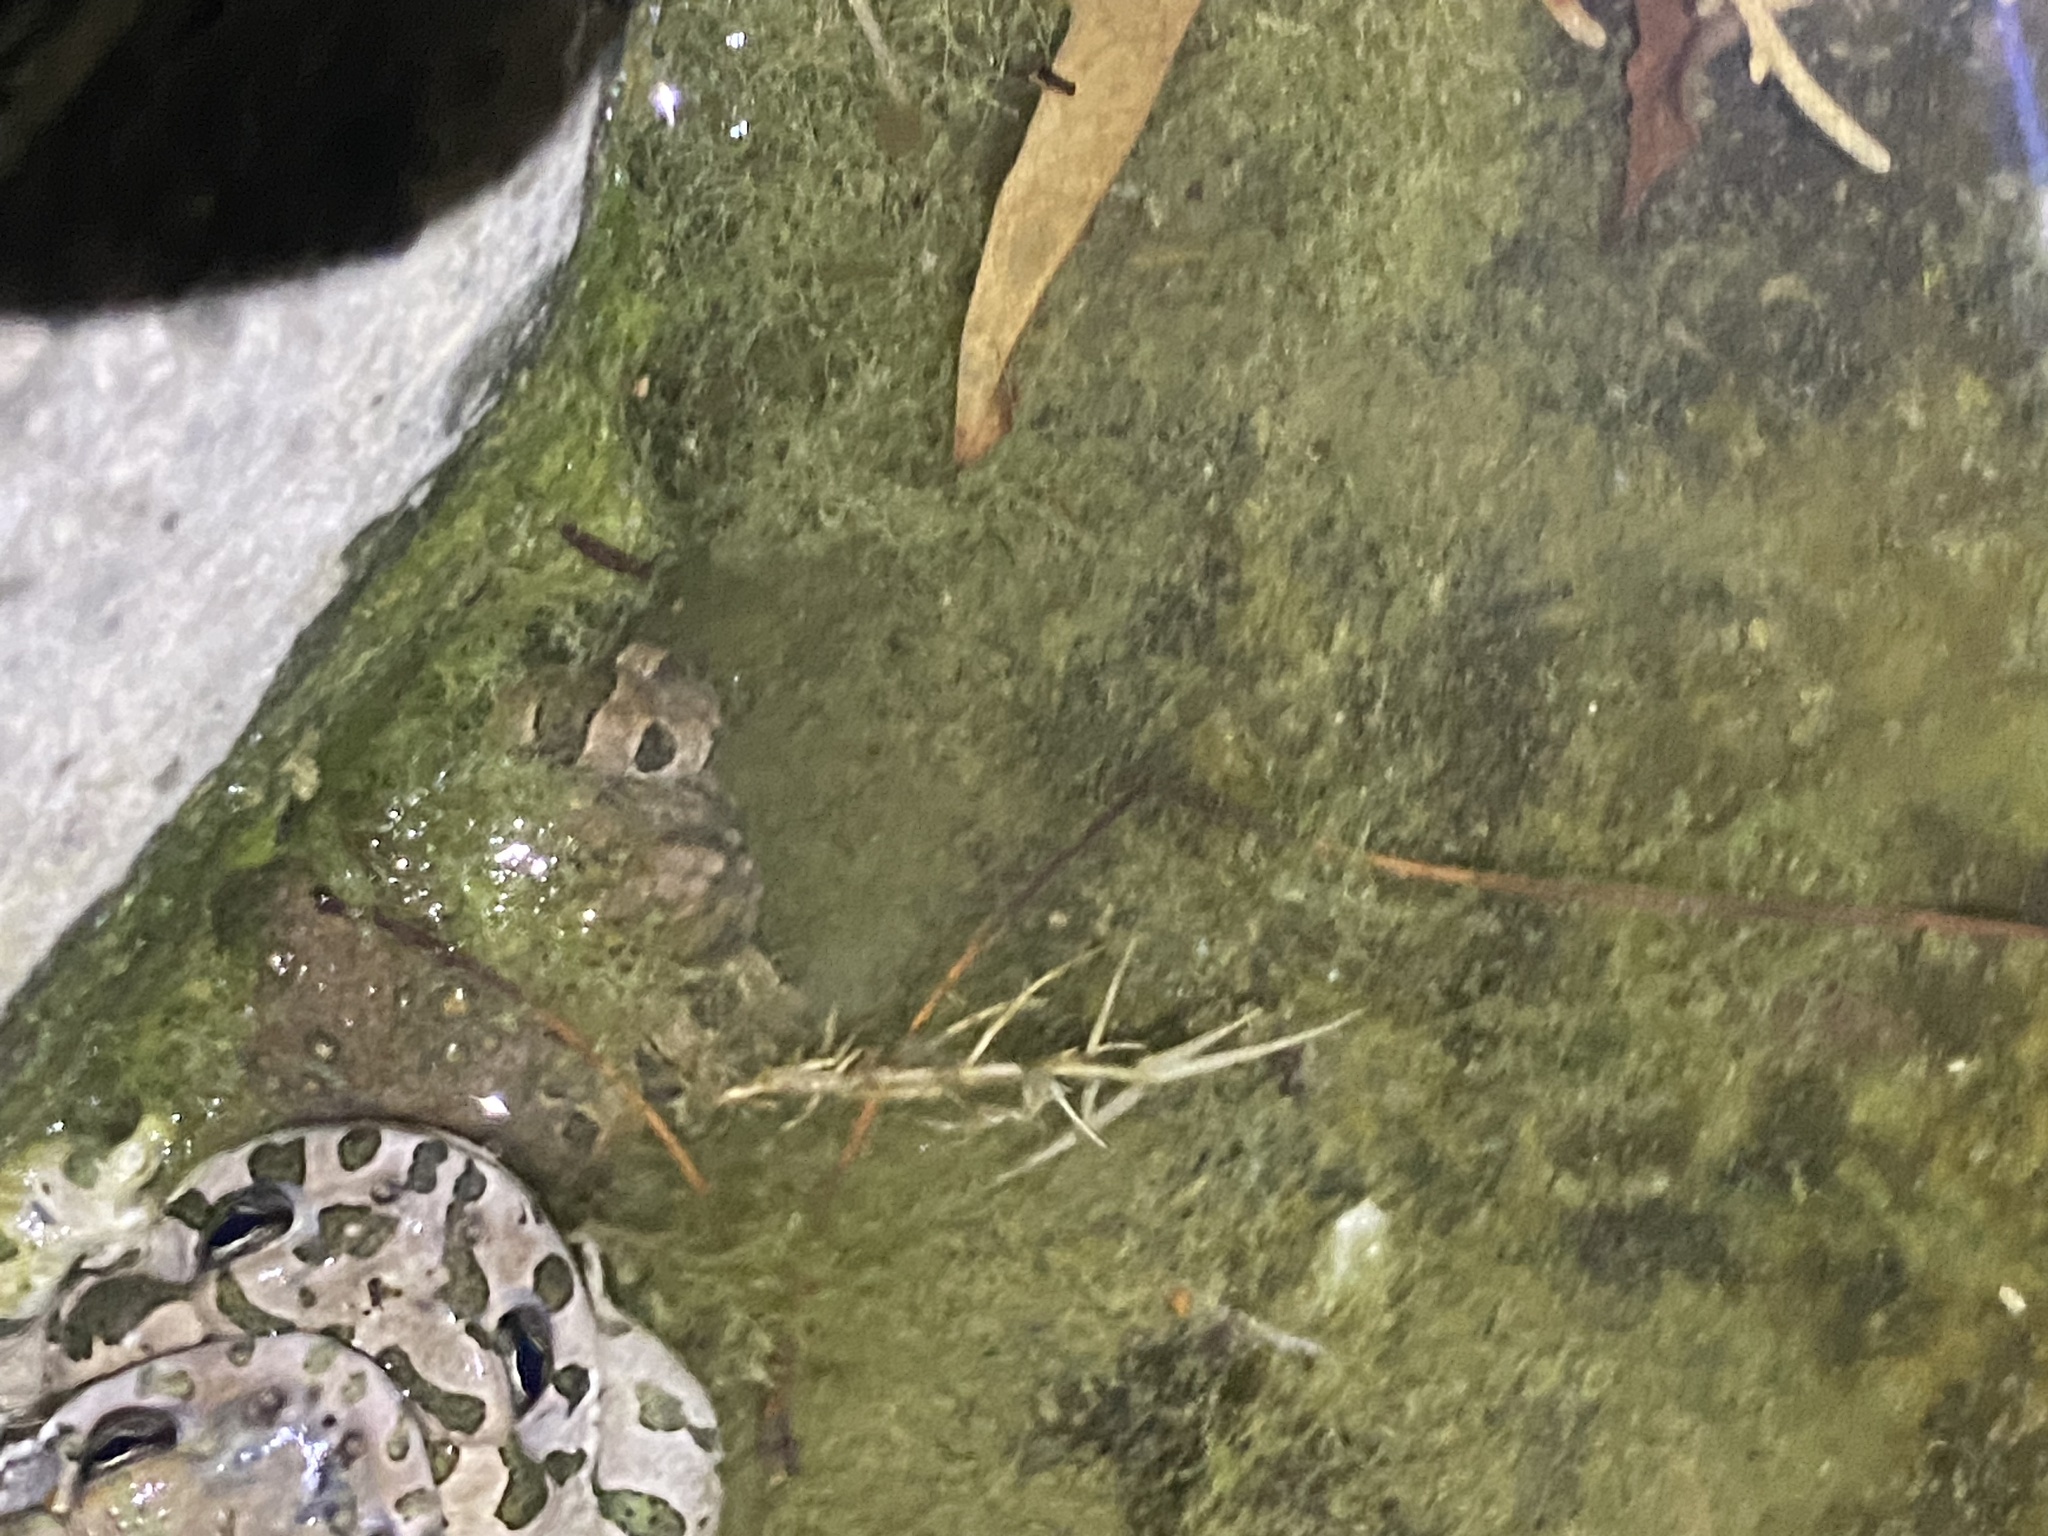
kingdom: Animalia
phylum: Chordata
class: Amphibia
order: Anura
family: Bufonidae
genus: Bufotes
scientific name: Bufotes viridis
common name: European green toad
